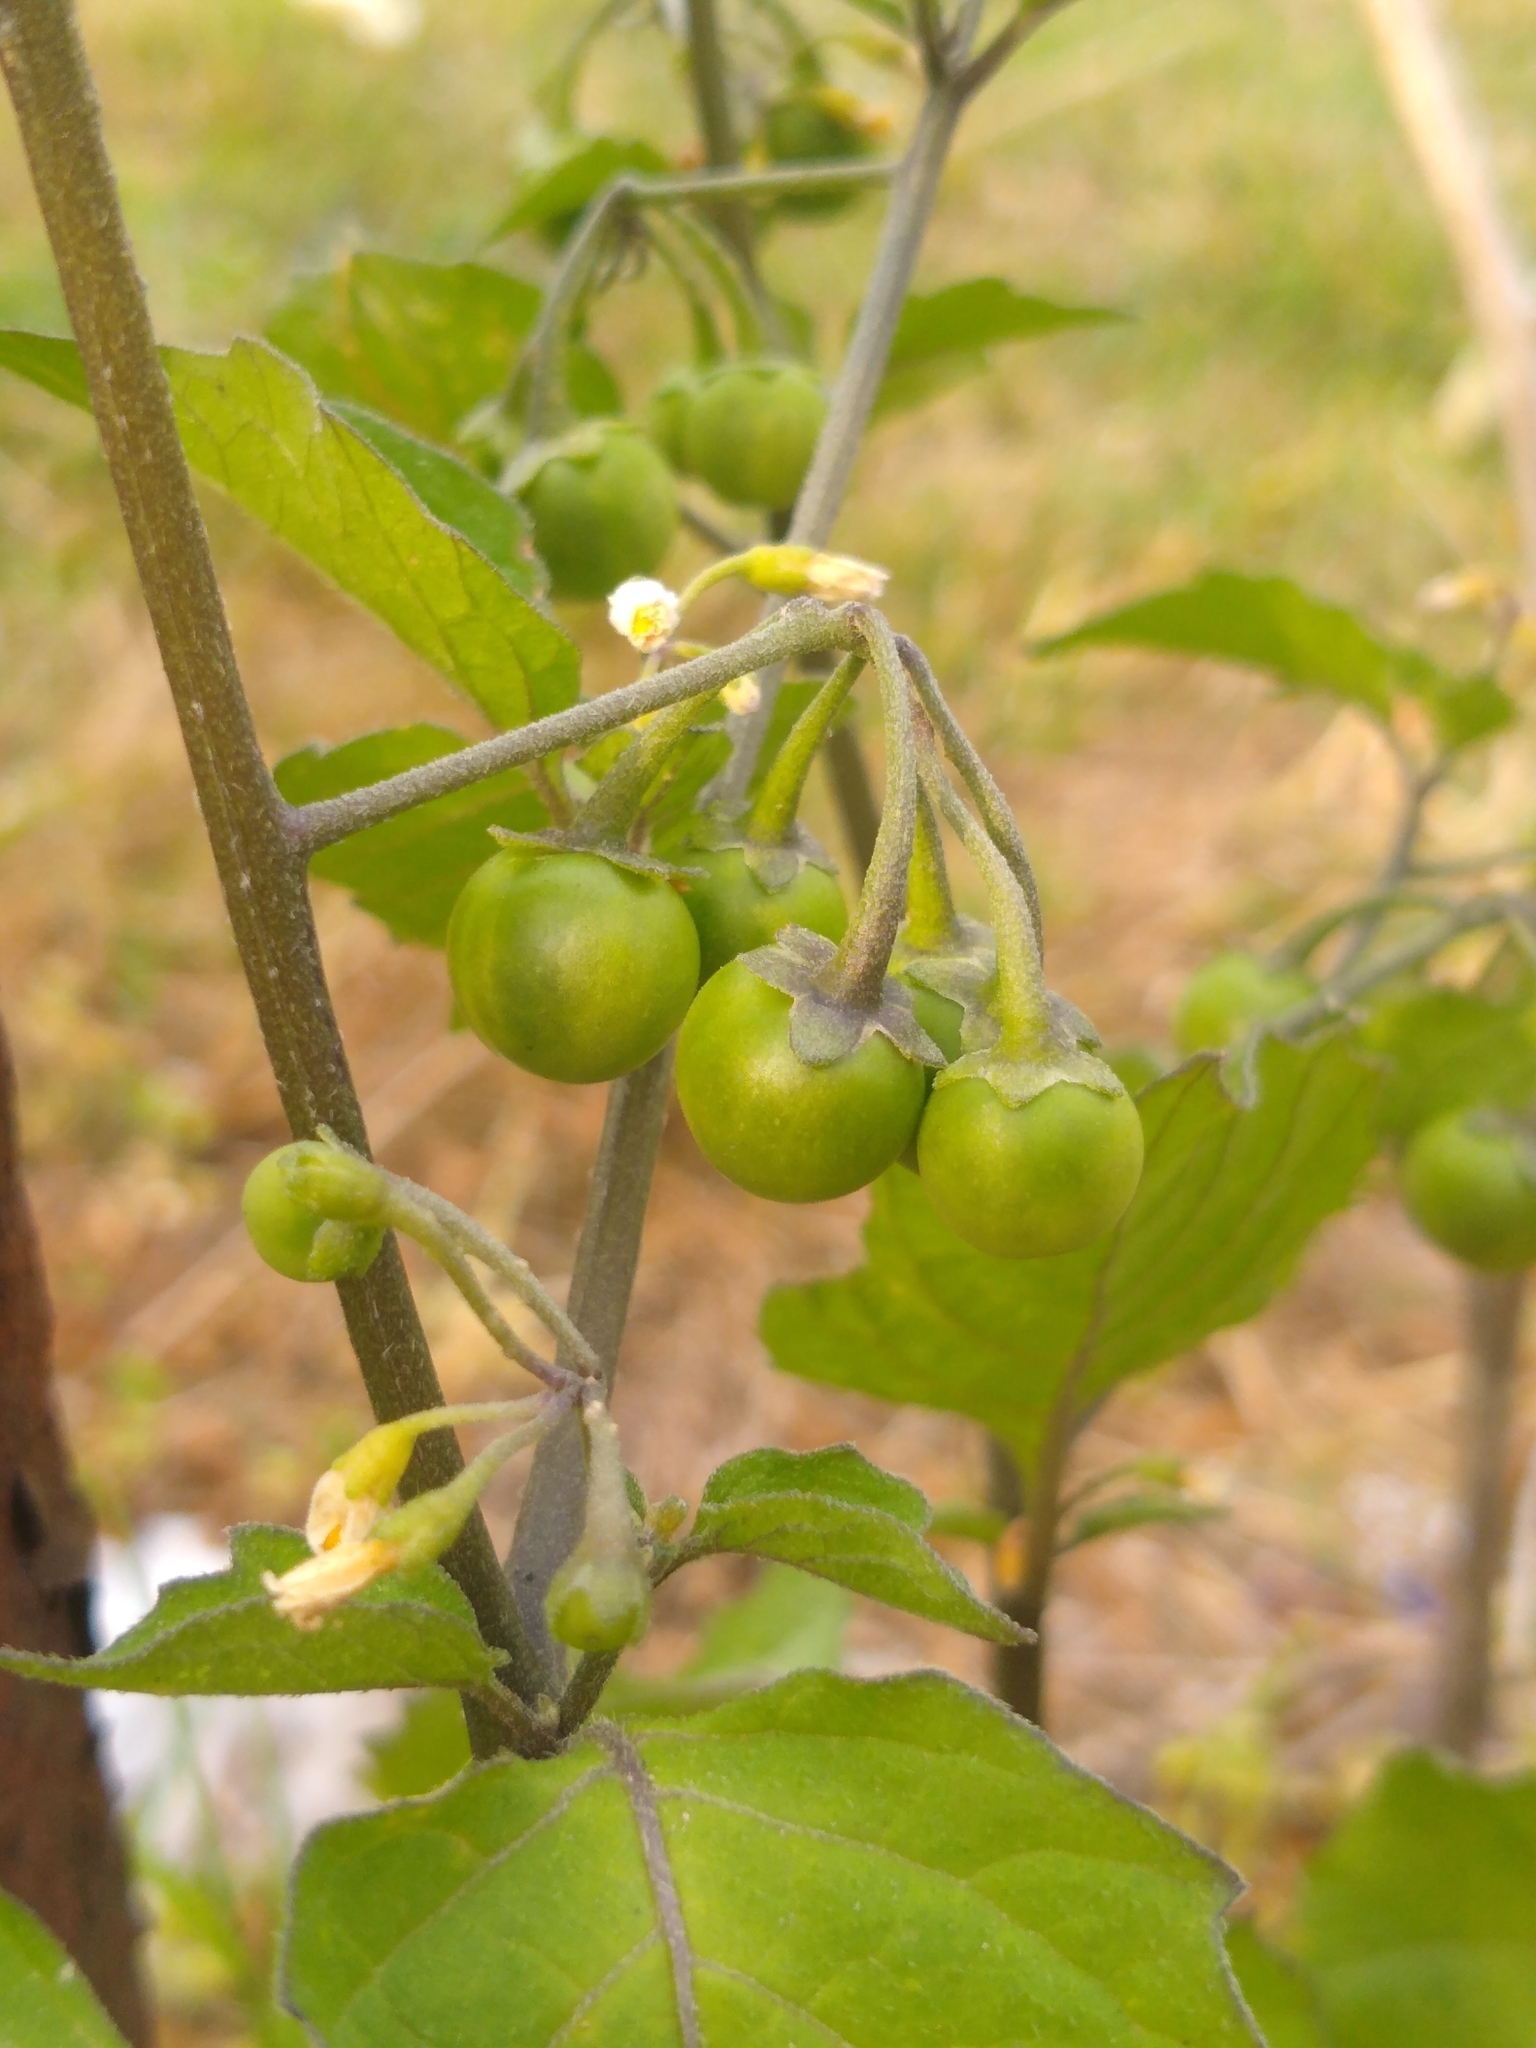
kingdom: Plantae
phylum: Tracheophyta
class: Magnoliopsida
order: Solanales
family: Solanaceae
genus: Solanum
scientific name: Solanum nigrum
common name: Black nightshade
